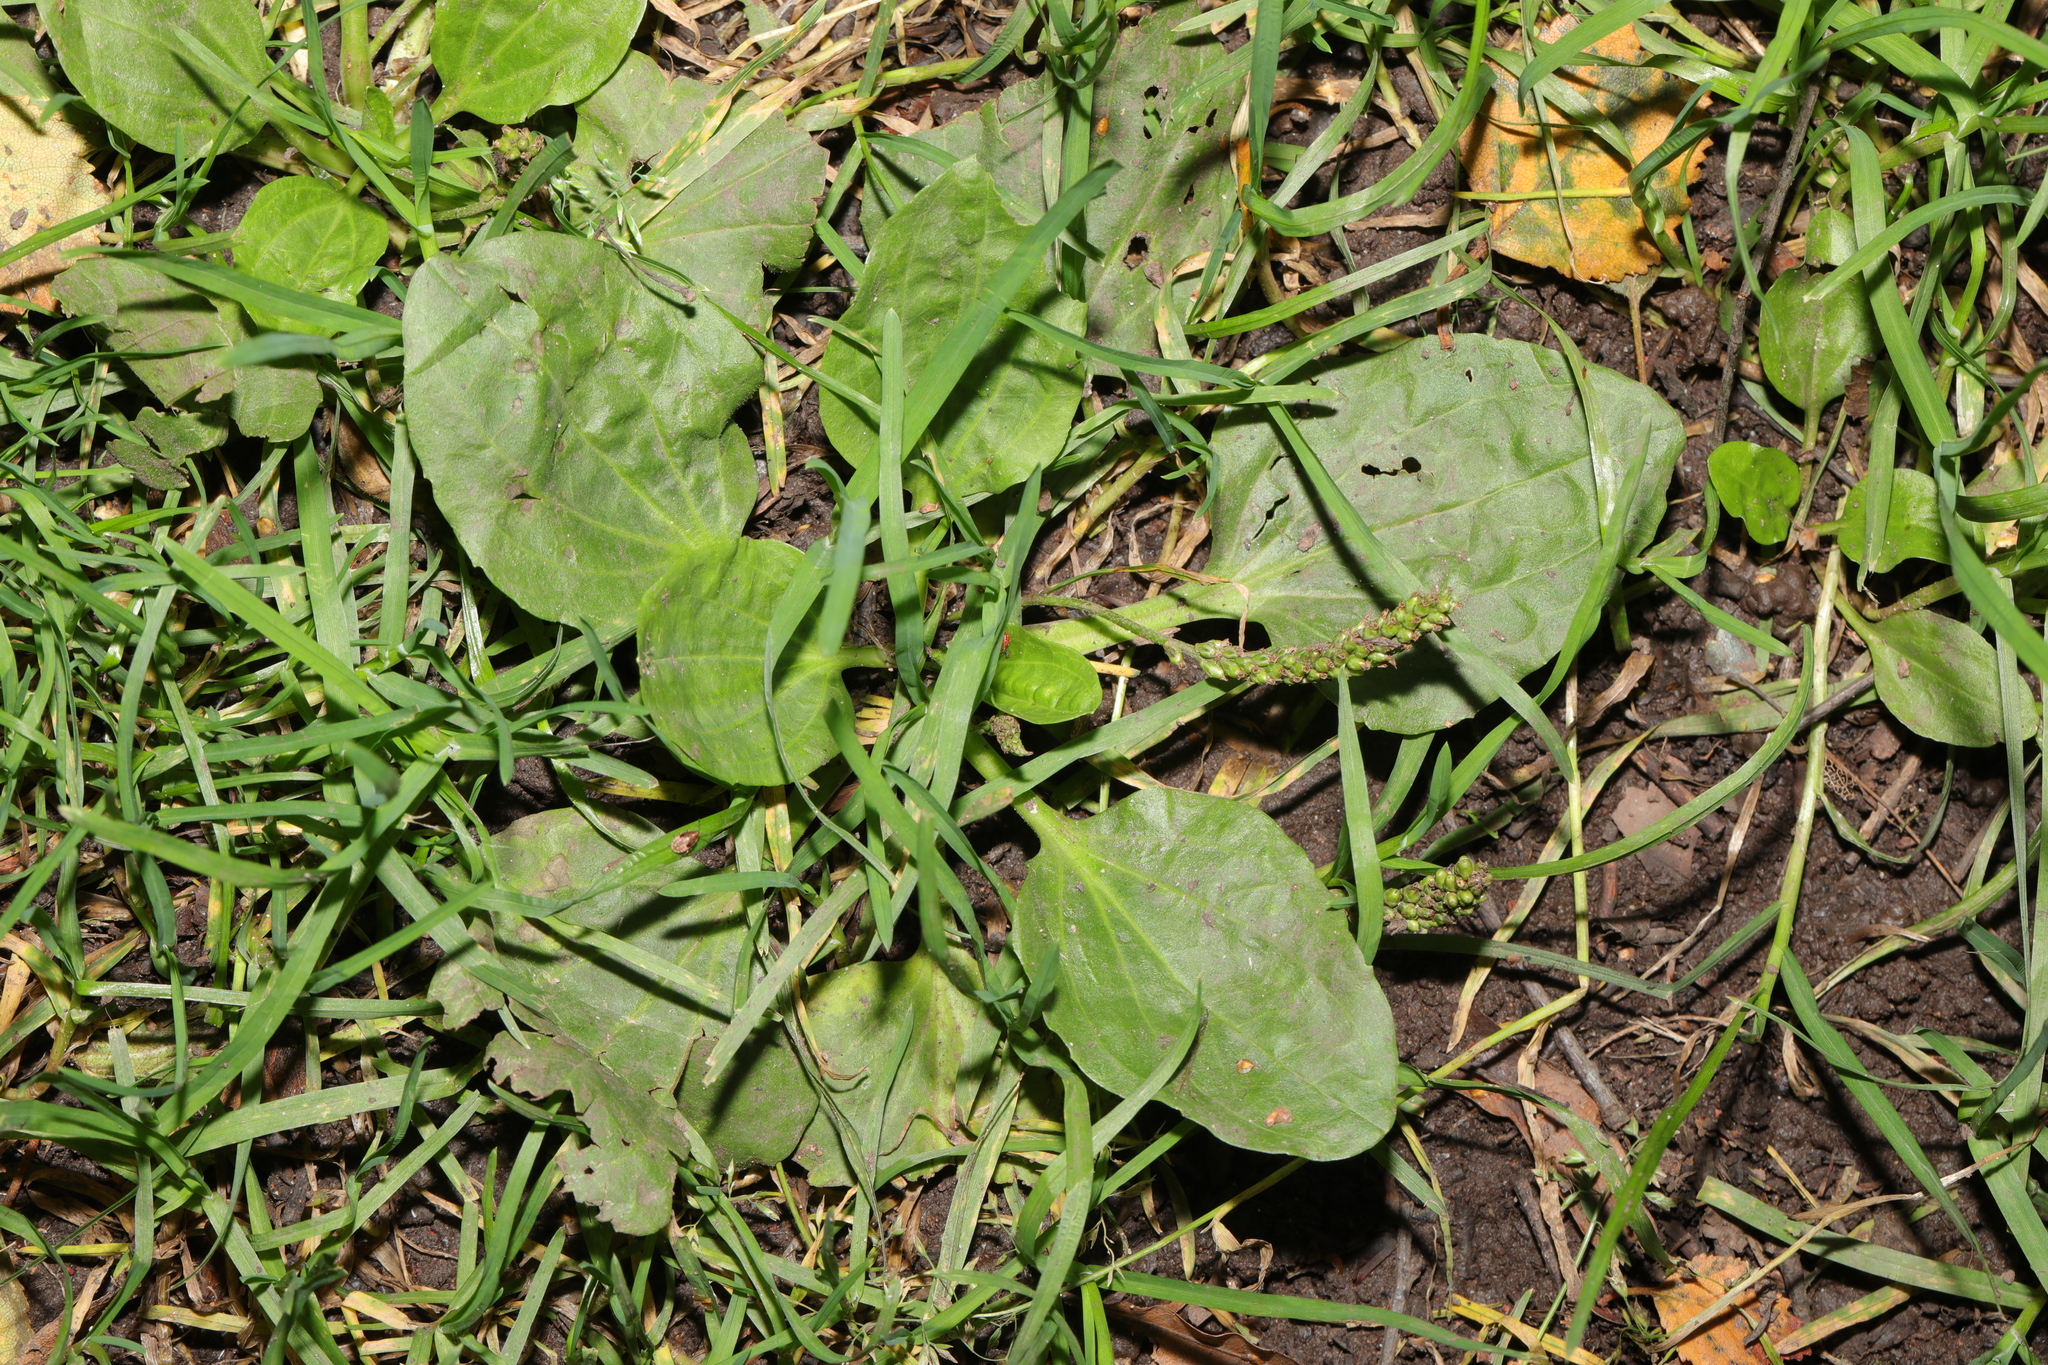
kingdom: Plantae
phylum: Tracheophyta
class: Magnoliopsida
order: Lamiales
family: Plantaginaceae
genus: Plantago
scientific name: Plantago major
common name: Common plantain
